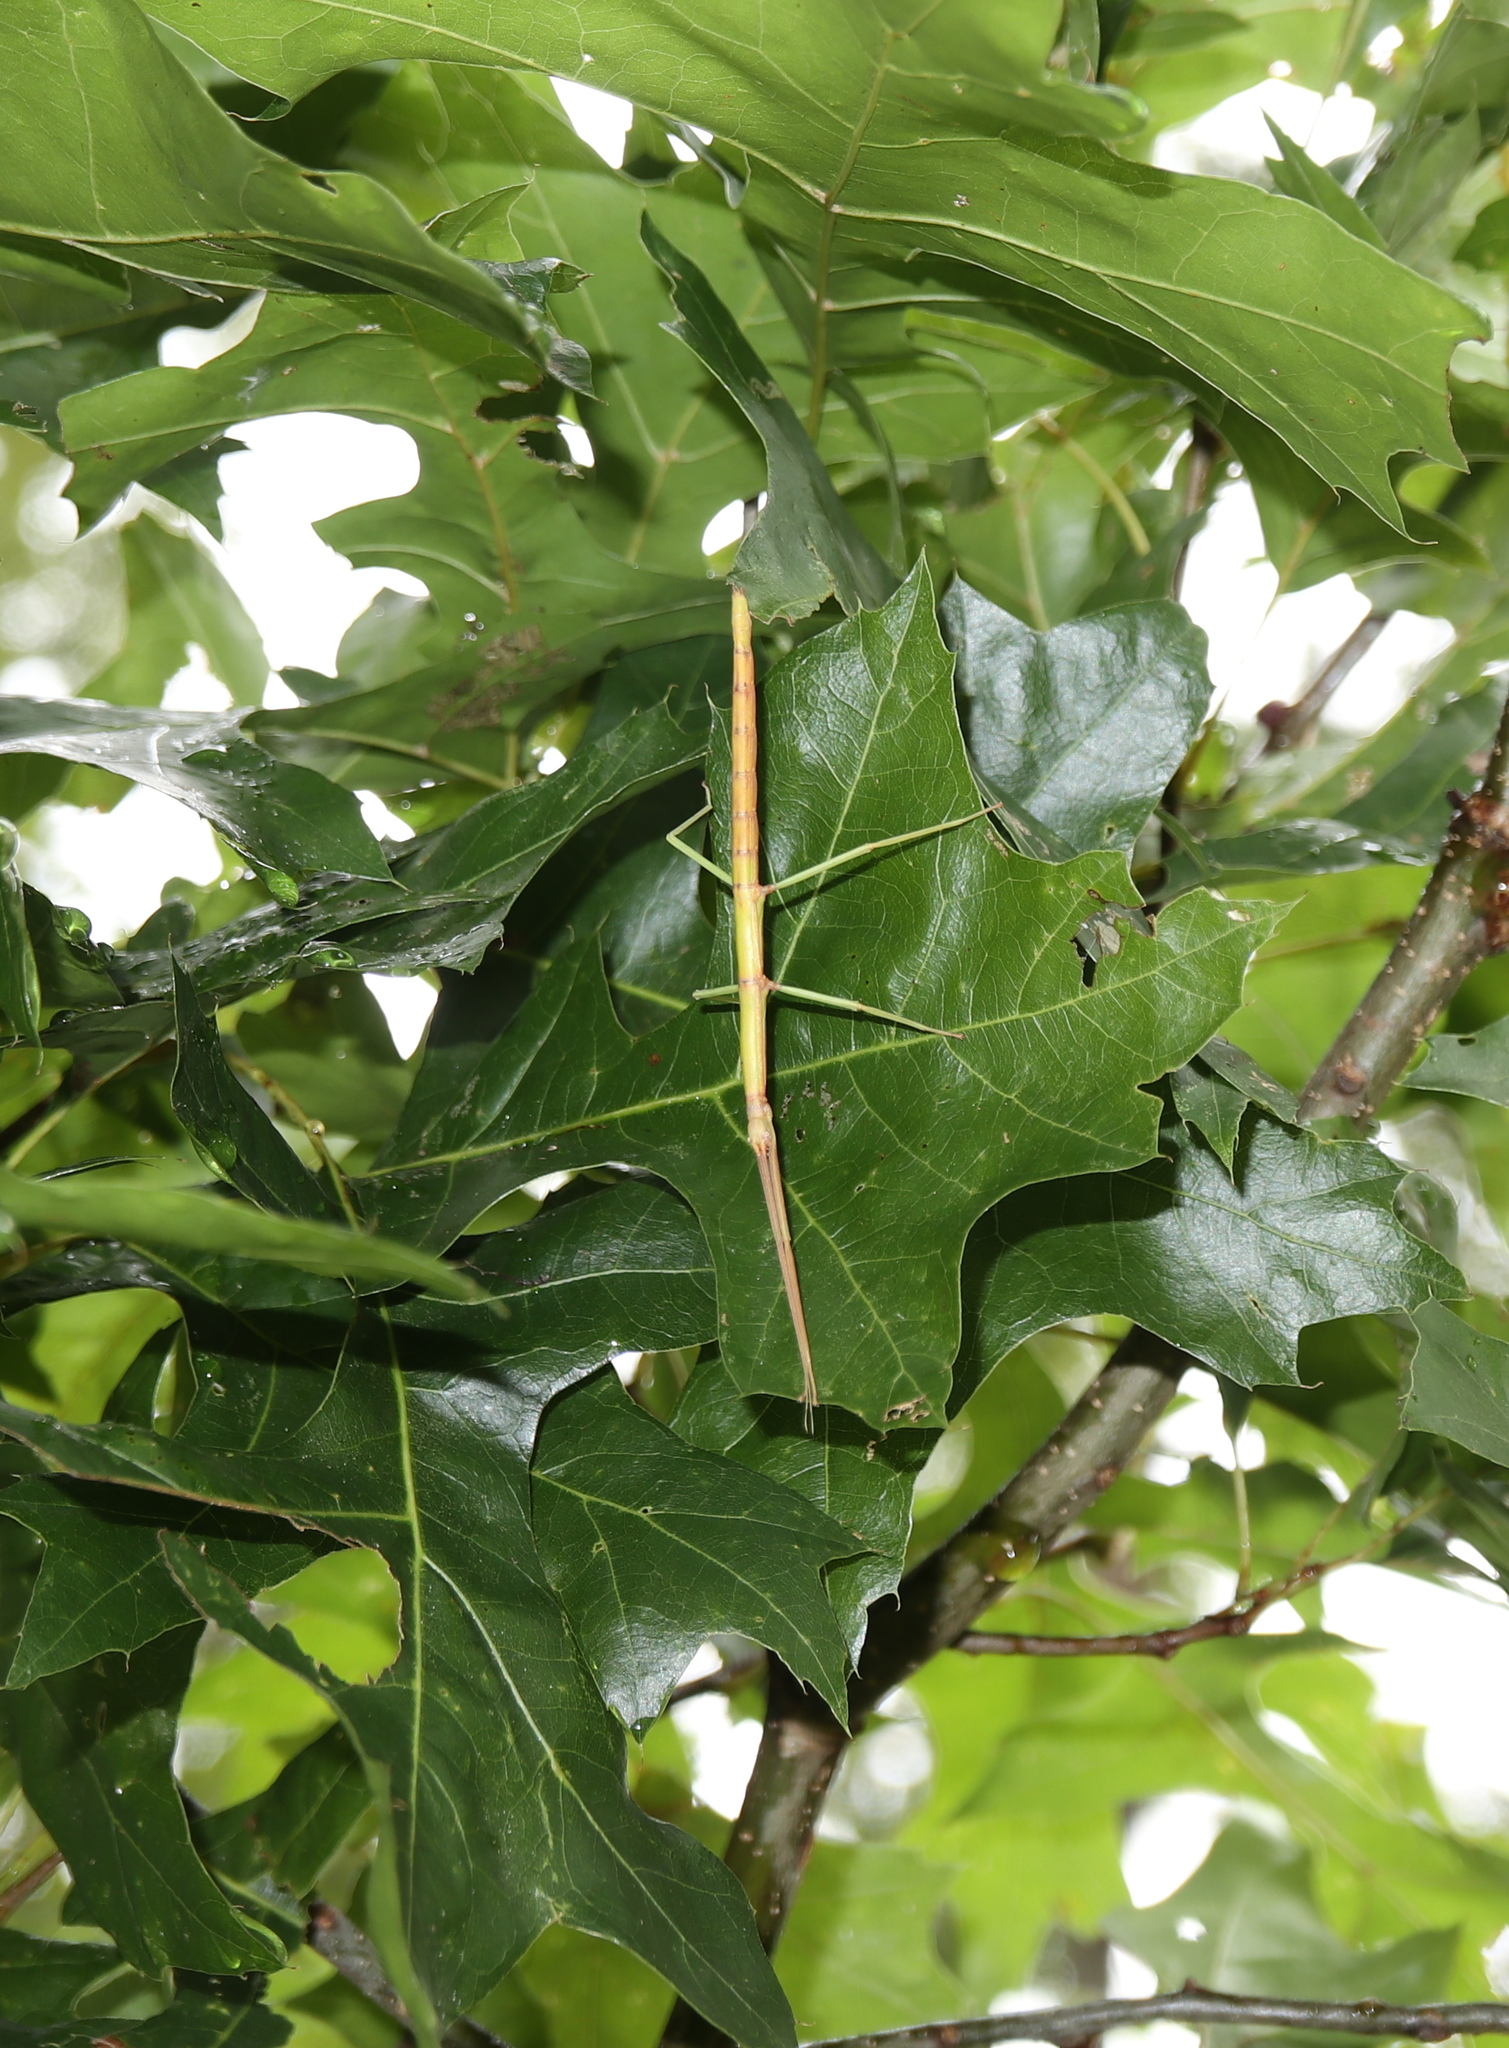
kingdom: Animalia
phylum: Arthropoda
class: Insecta
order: Phasmida
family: Diapheromeridae
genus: Diapheromera
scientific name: Diapheromera femorata
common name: Common american walkingstick
